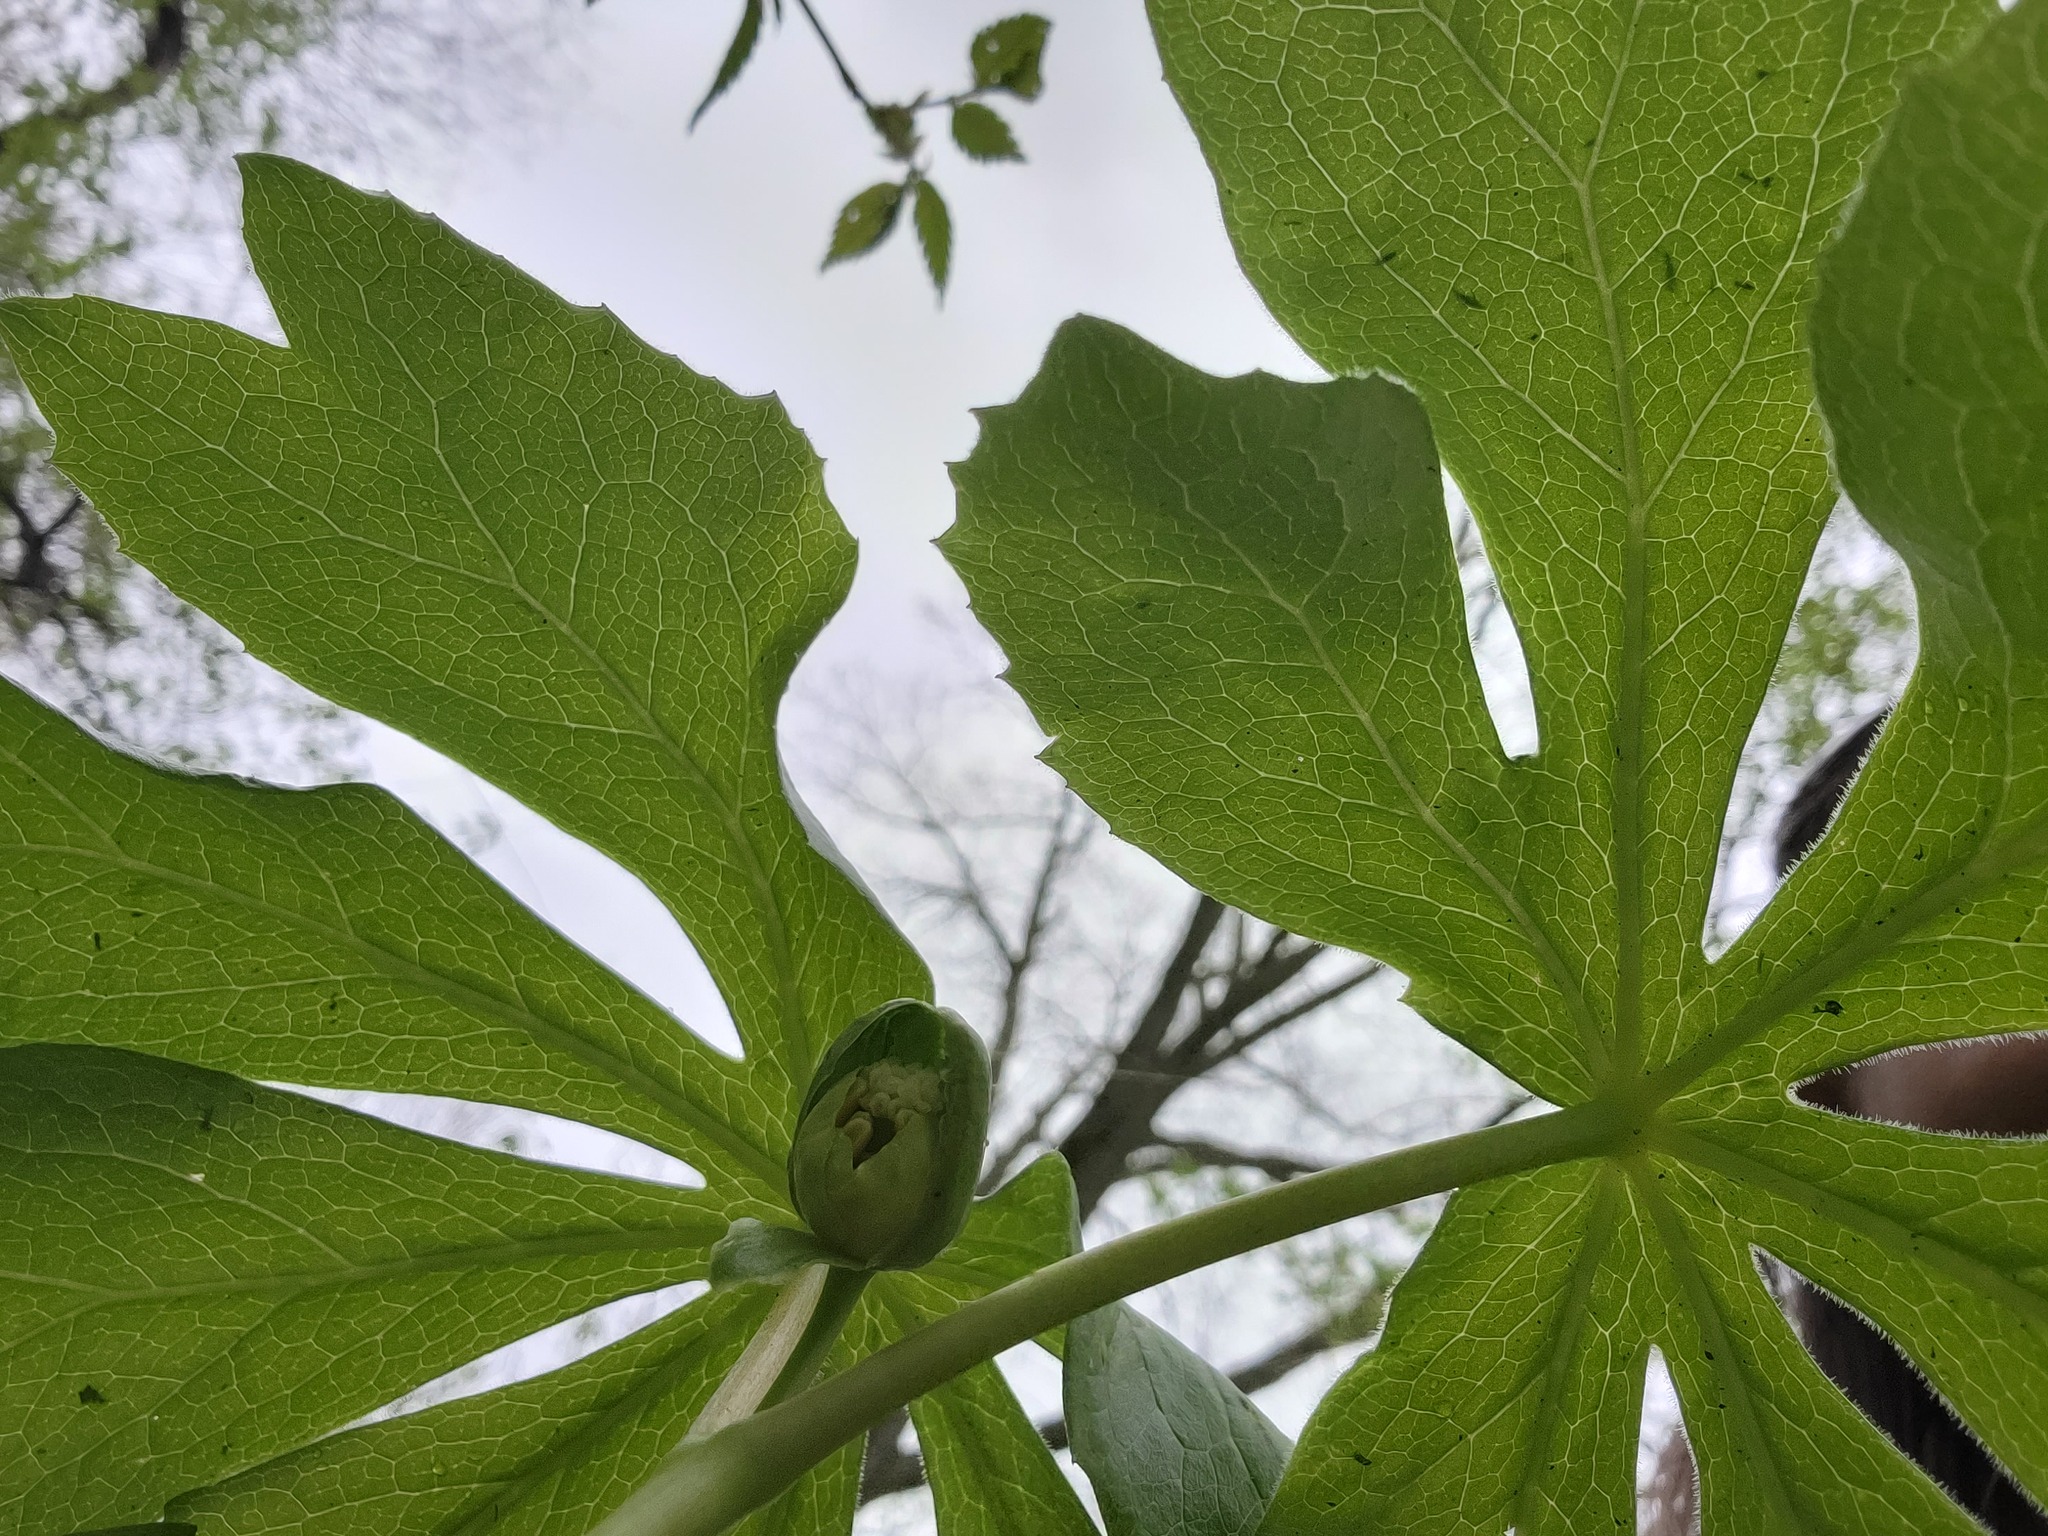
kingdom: Plantae
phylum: Tracheophyta
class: Magnoliopsida
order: Ranunculales
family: Berberidaceae
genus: Podophyllum
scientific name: Podophyllum peltatum
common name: Wild mandrake
